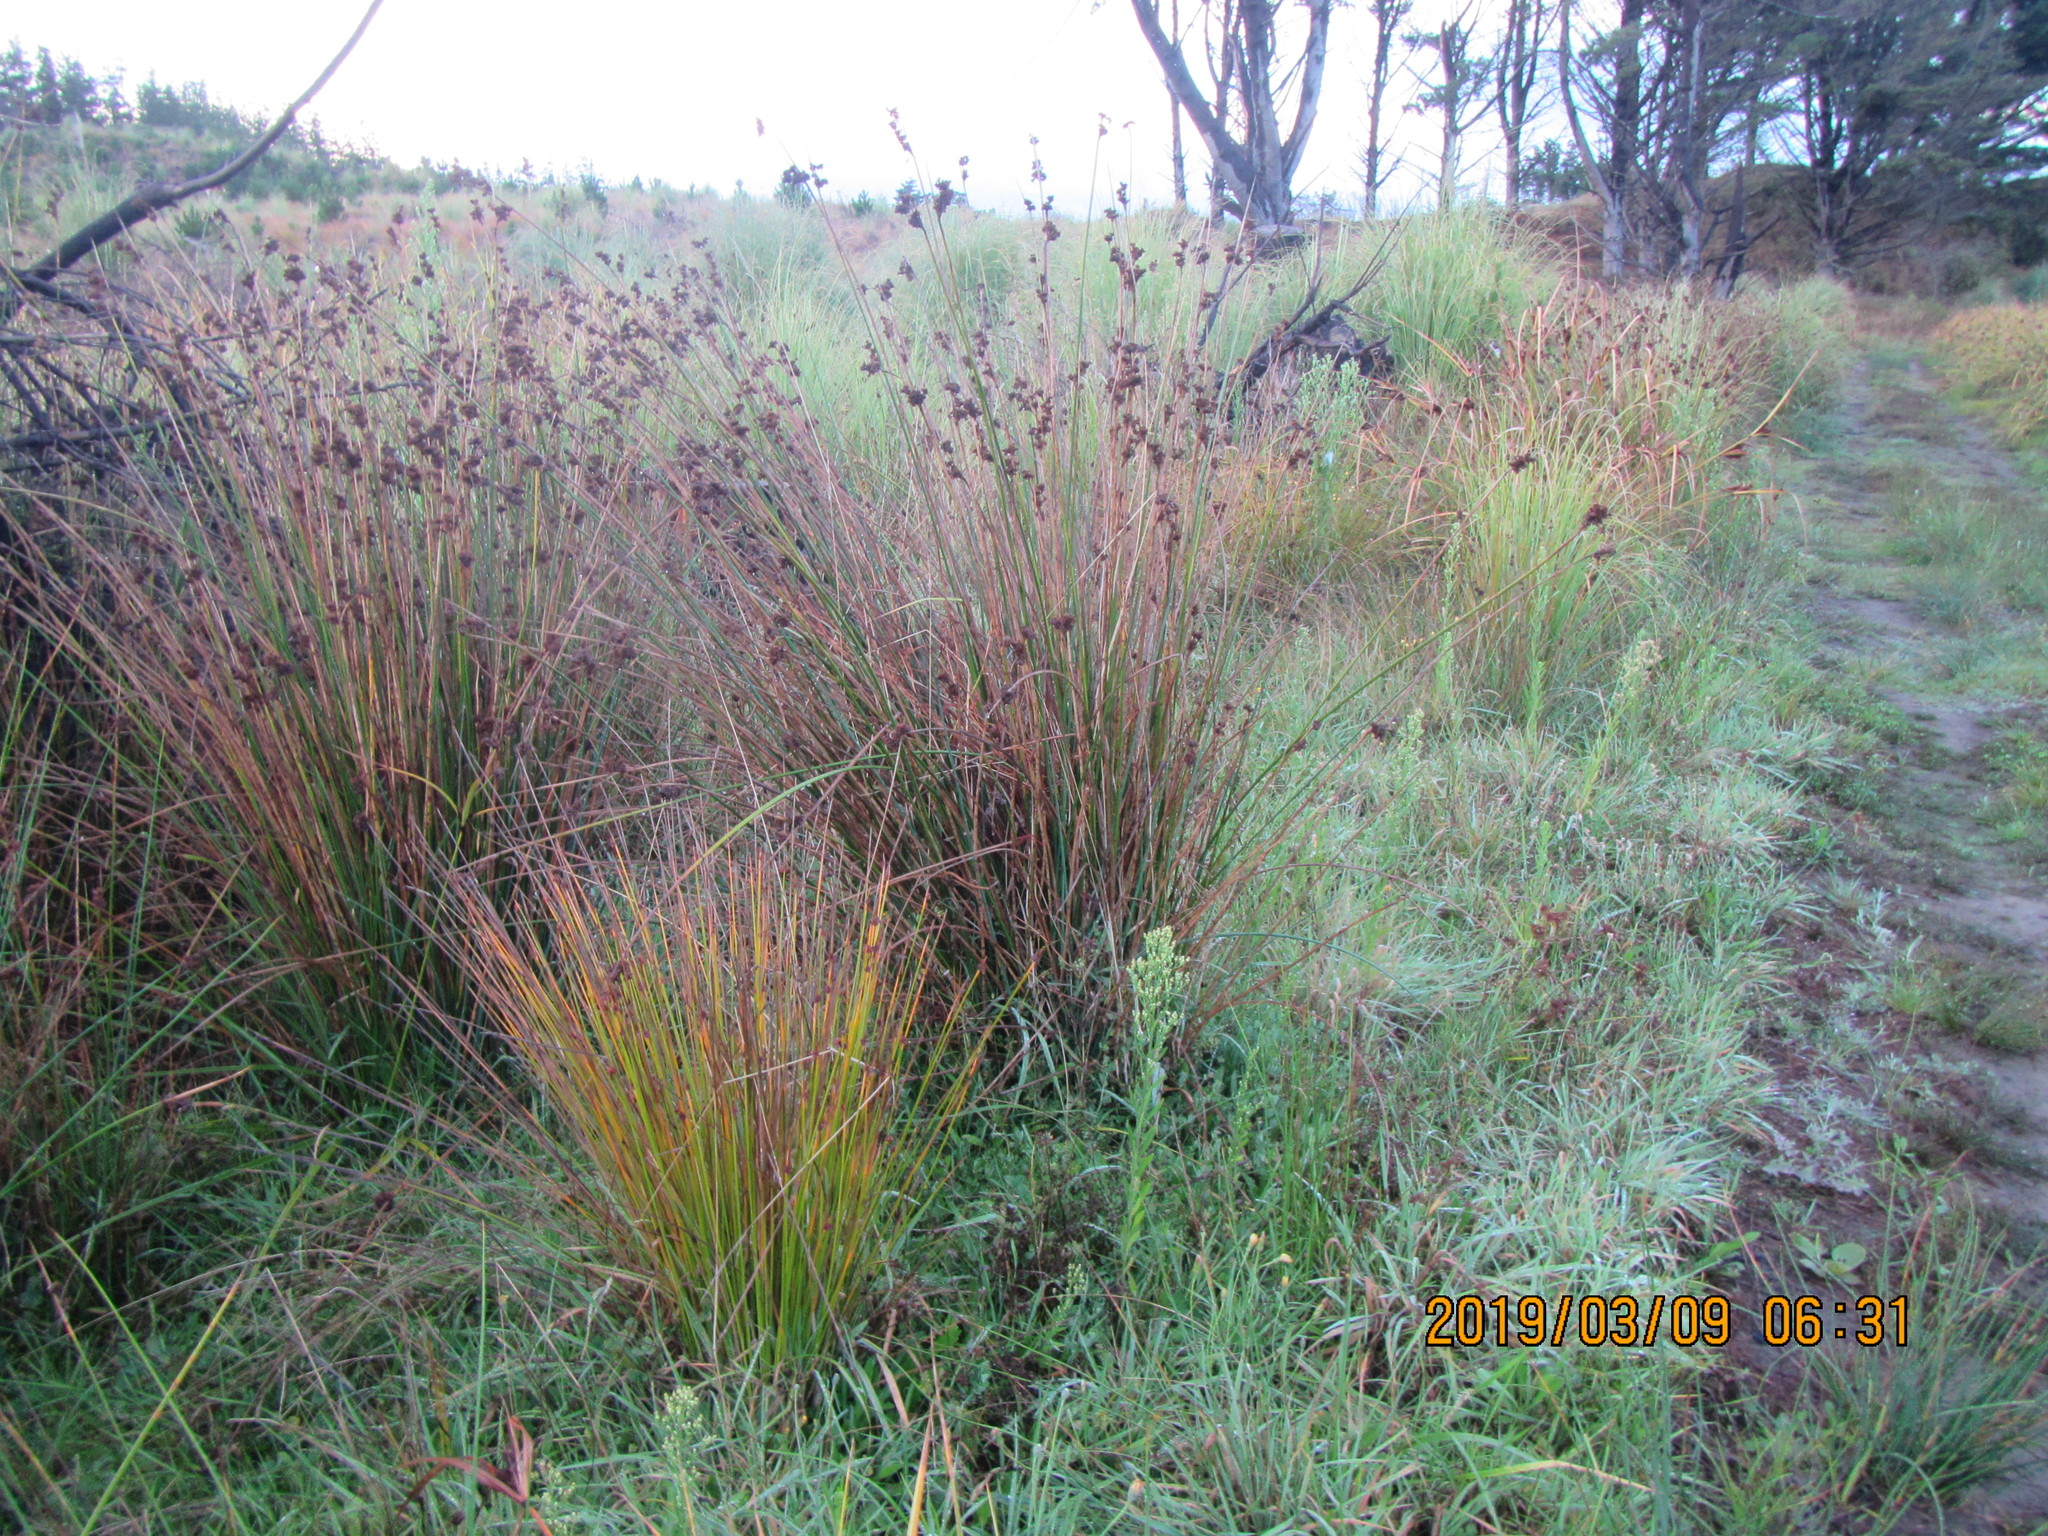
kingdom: Plantae
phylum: Tracheophyta
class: Liliopsida
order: Poales
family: Cyperaceae
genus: Ficinia
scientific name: Ficinia nodosa
